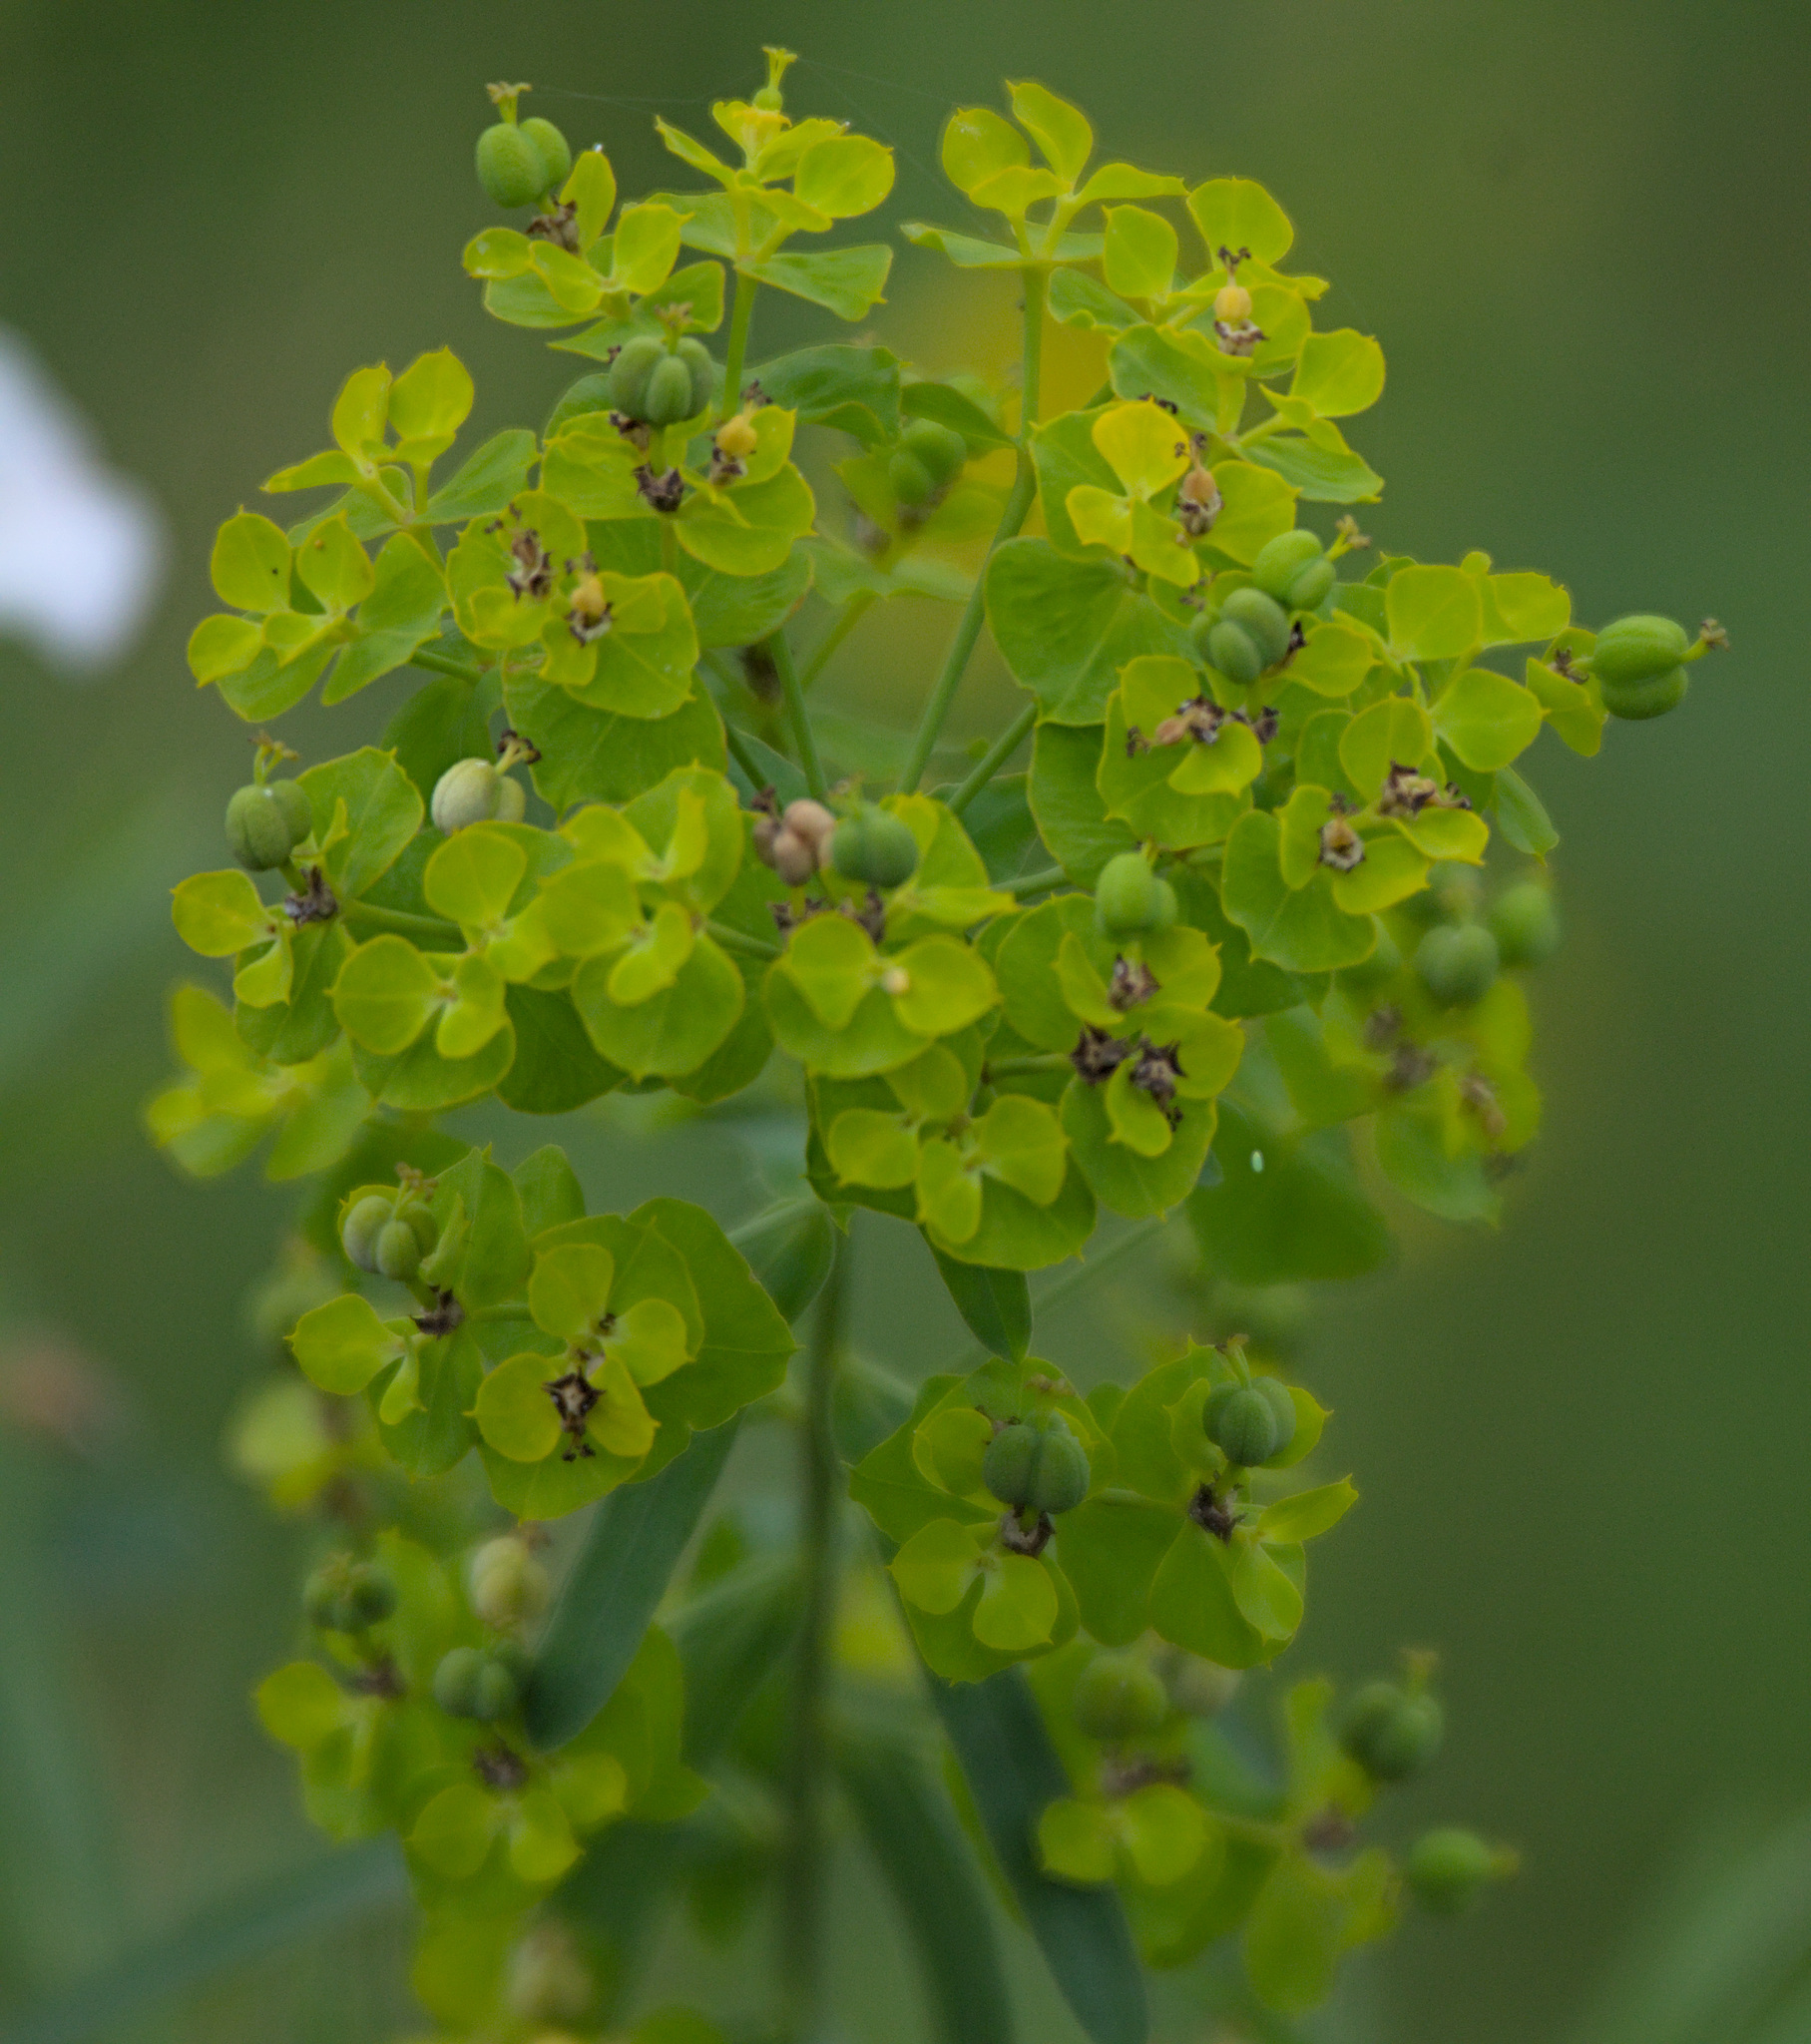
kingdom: Plantae
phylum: Tracheophyta
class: Magnoliopsida
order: Malpighiales
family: Euphorbiaceae
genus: Euphorbia
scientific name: Euphorbia virgata
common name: Leafy spurge
